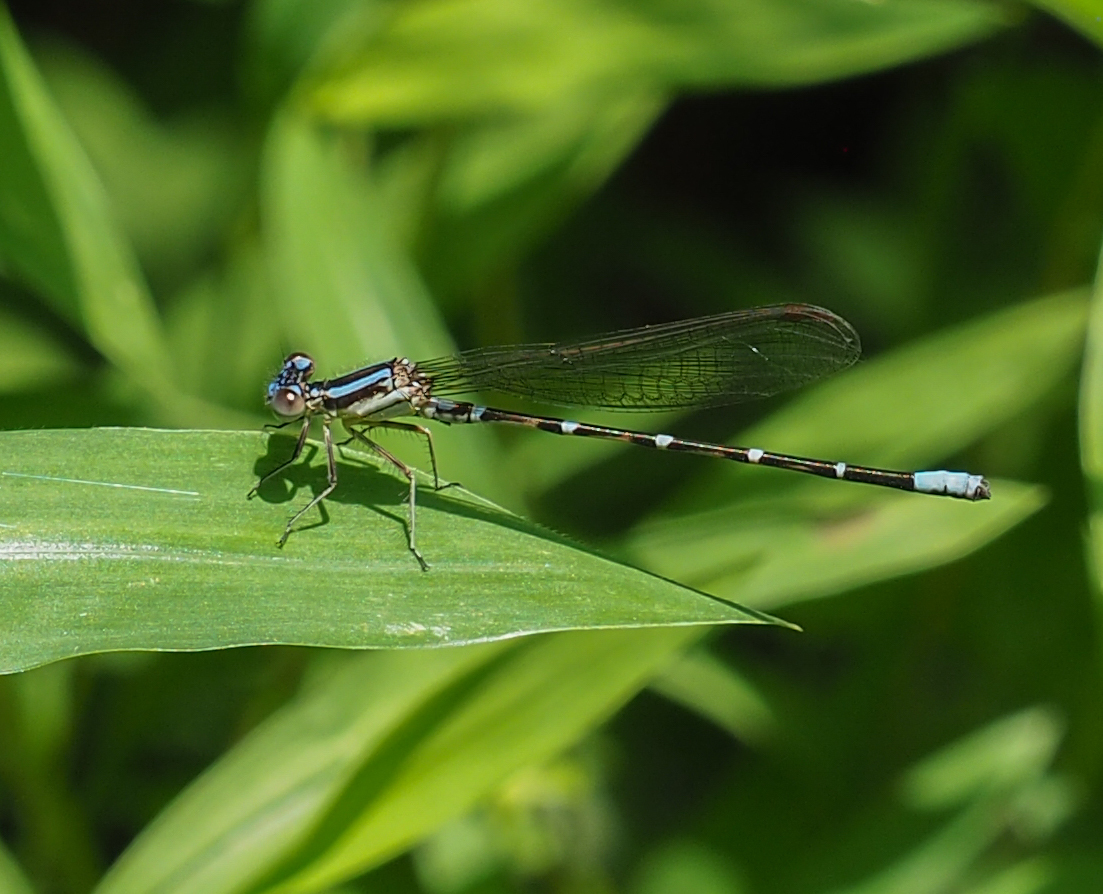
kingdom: Animalia
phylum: Arthropoda
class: Insecta
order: Odonata
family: Coenagrionidae
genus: Argia
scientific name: Argia sedula
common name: Blue-ringed dancer
